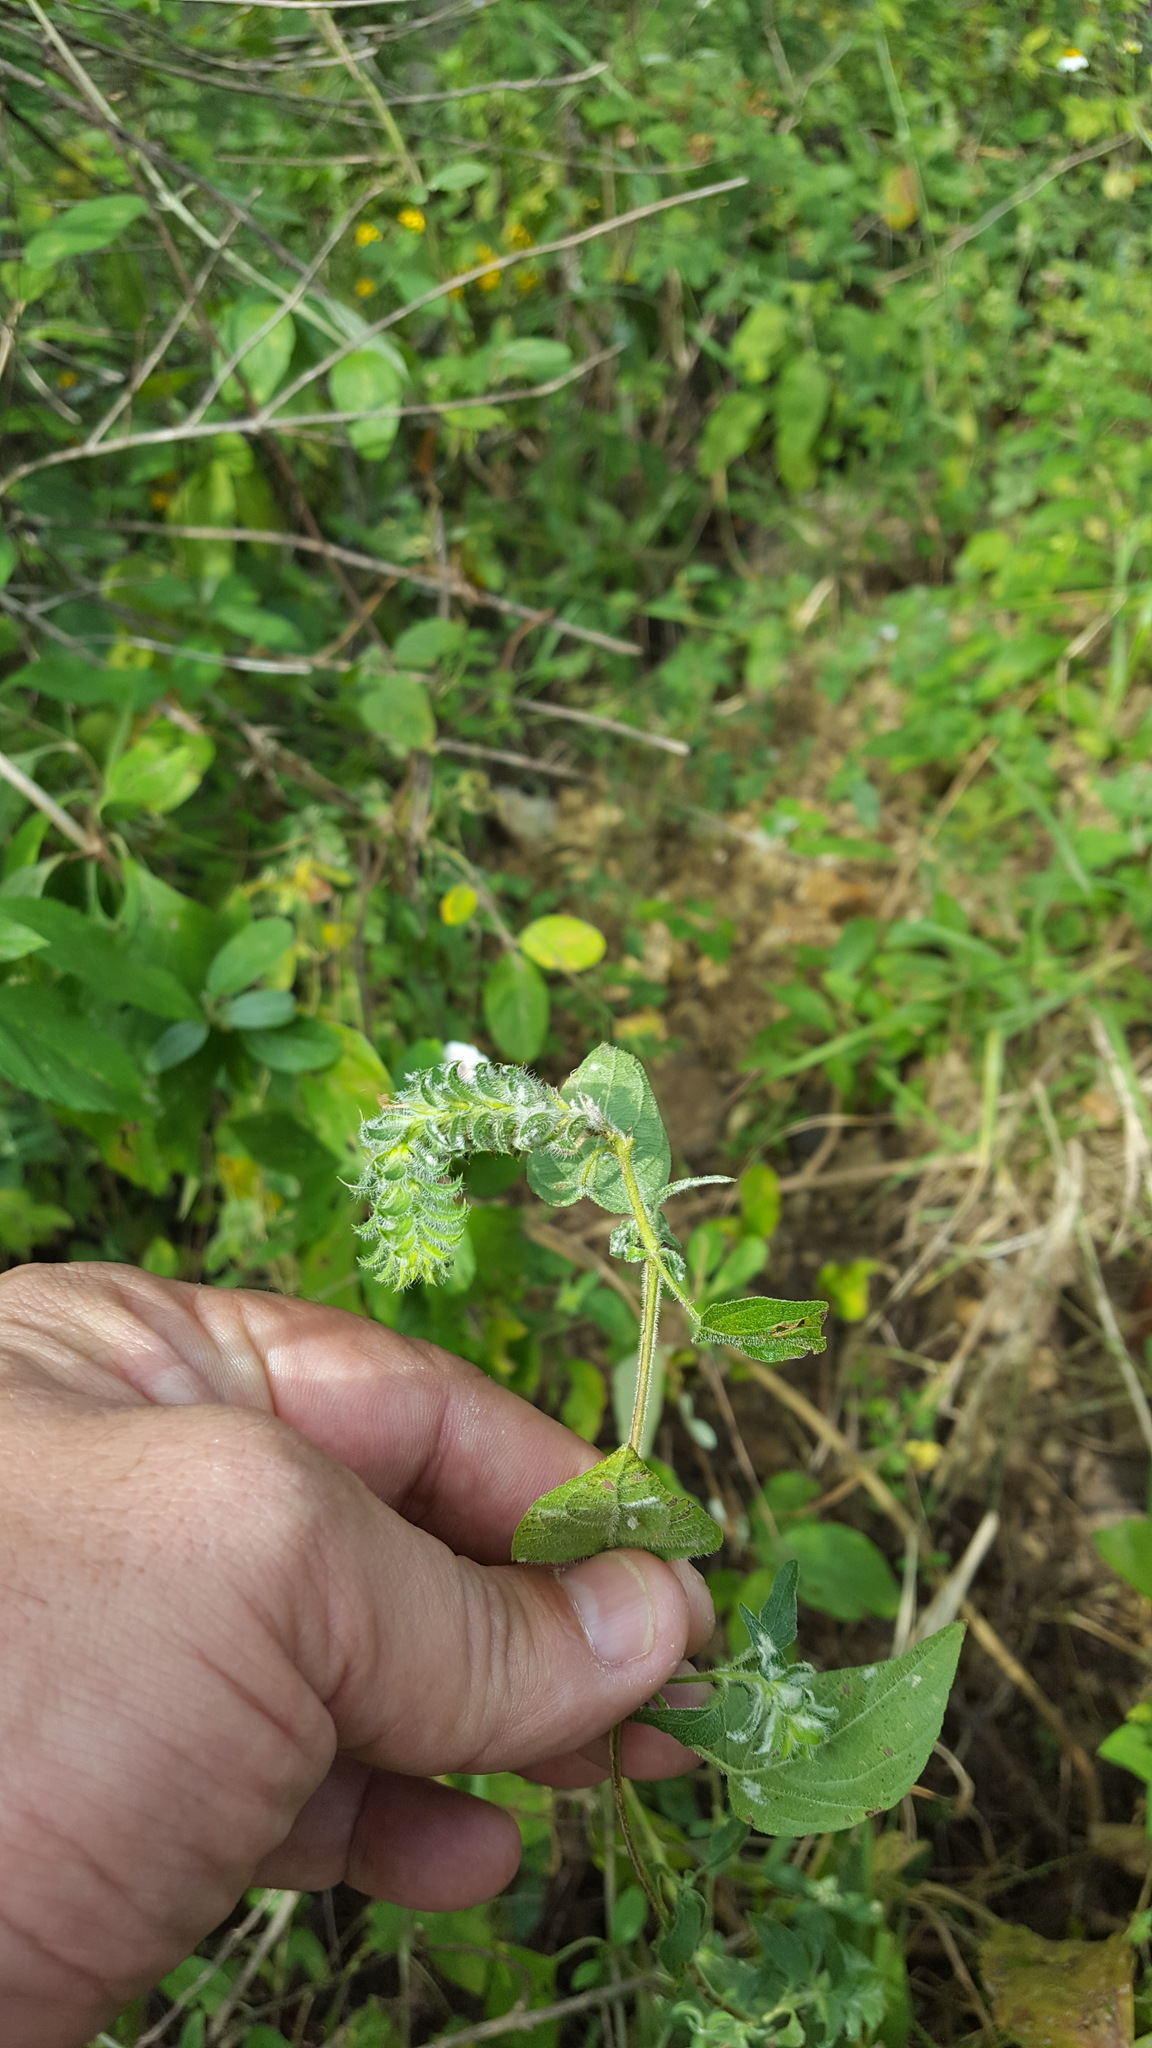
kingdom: Plantae
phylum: Tracheophyta
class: Magnoliopsida
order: Lamiales
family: Acanthaceae
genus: Tetramerium
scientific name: Tetramerium nervosum
